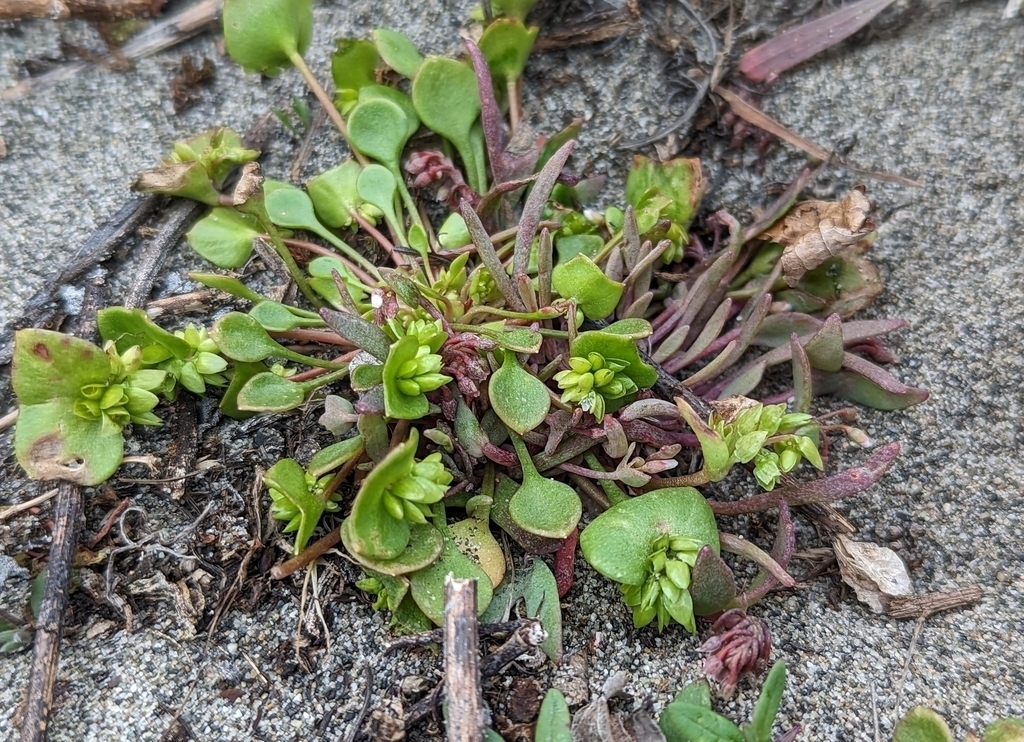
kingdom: Plantae
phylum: Tracheophyta
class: Magnoliopsida
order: Caryophyllales
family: Montiaceae
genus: Claytonia
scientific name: Claytonia exigua
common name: Pale spring beauty
